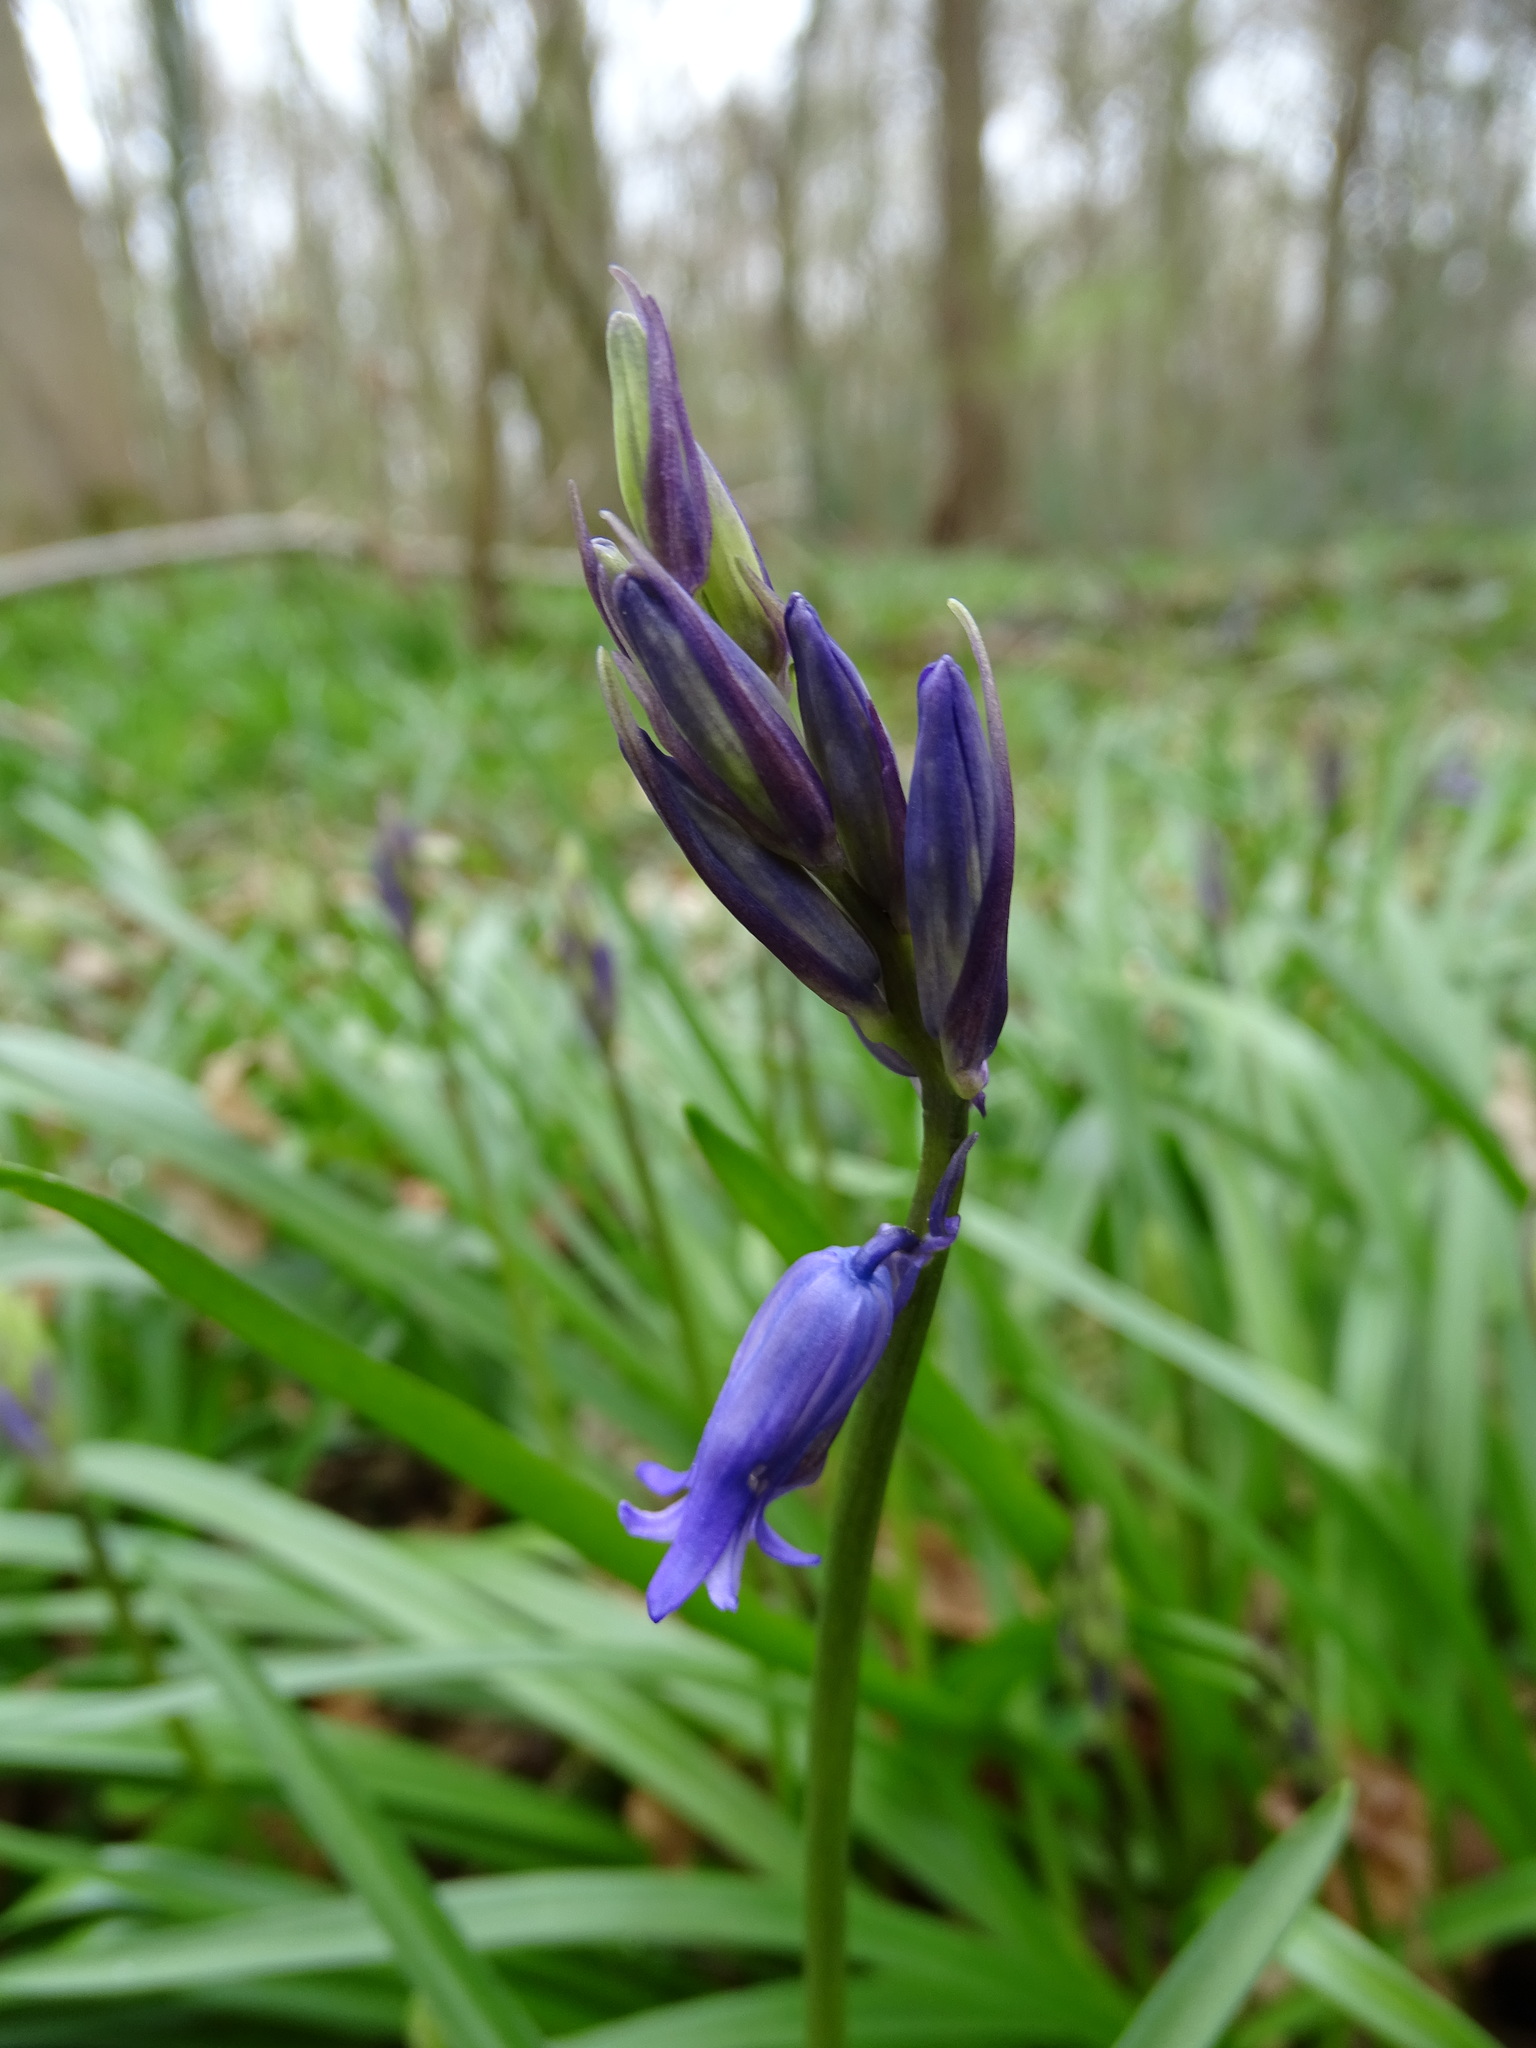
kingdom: Plantae
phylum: Tracheophyta
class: Liliopsida
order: Asparagales
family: Asparagaceae
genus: Hyacinthoides
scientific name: Hyacinthoides non-scripta
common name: Bluebell
